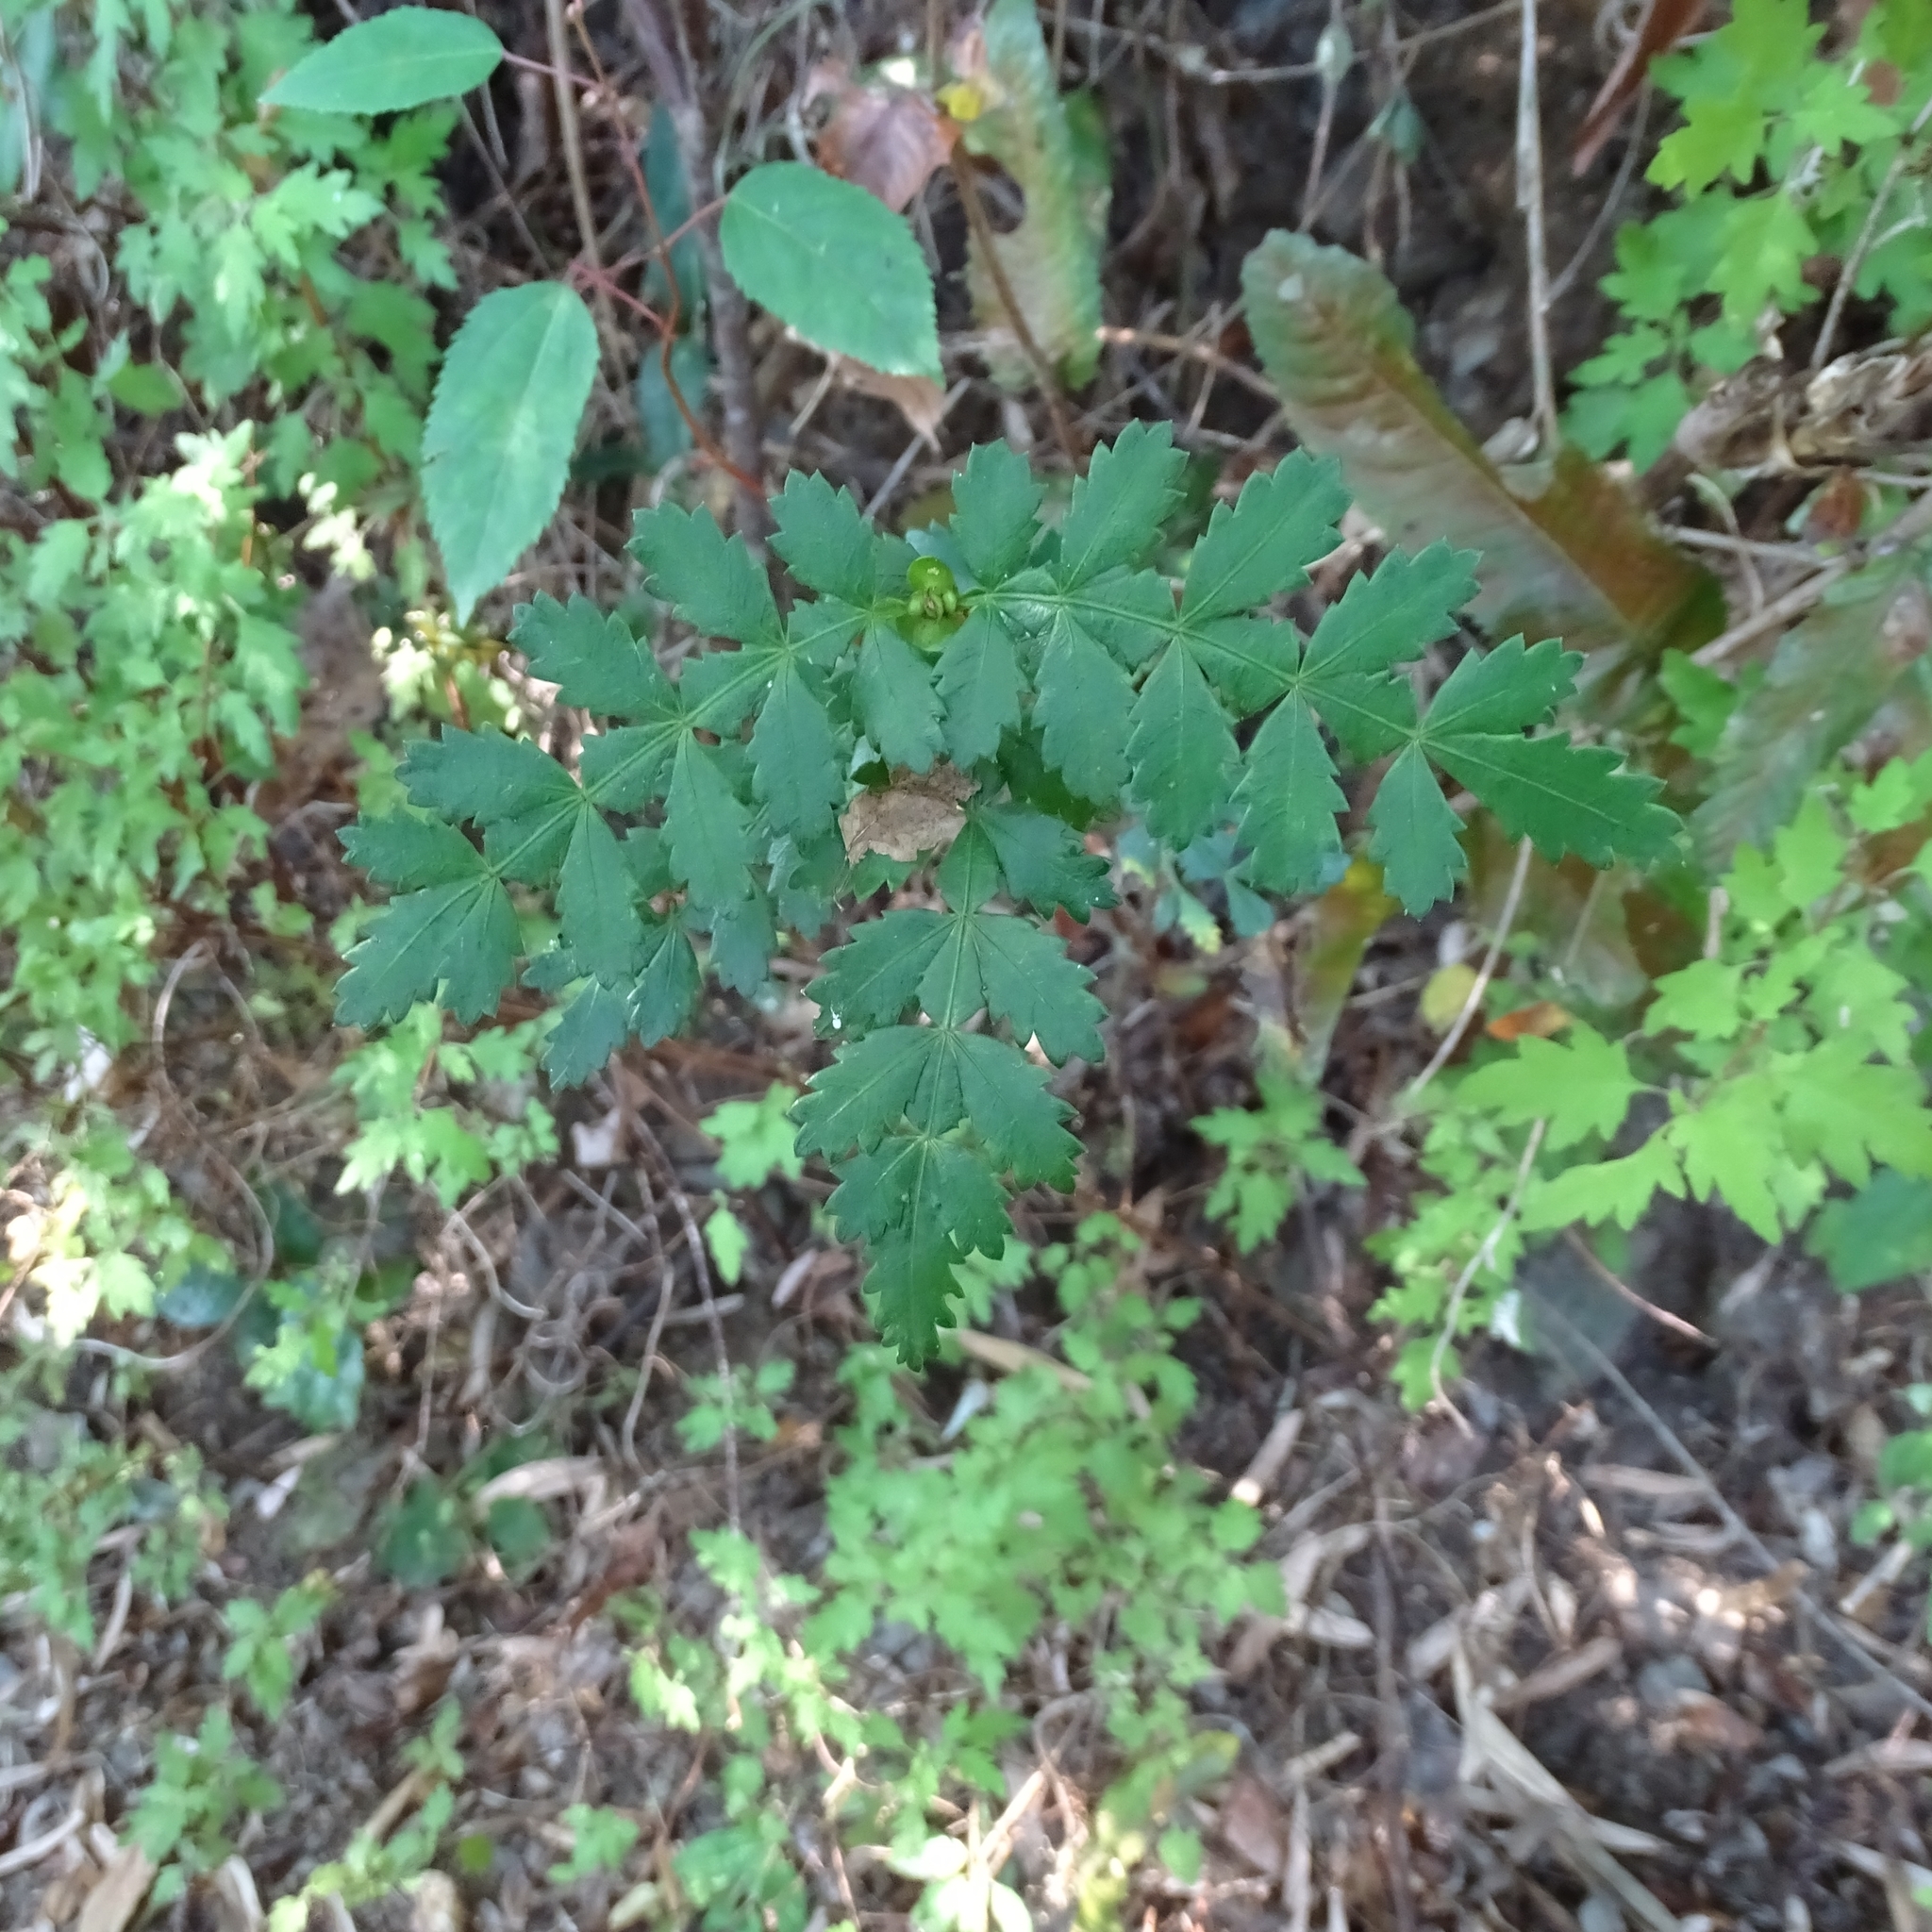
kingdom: Plantae
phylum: Tracheophyta
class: Magnoliopsida
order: Oxalidales
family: Cunoniaceae
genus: Weinmannia
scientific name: Weinmannia trichosperma
